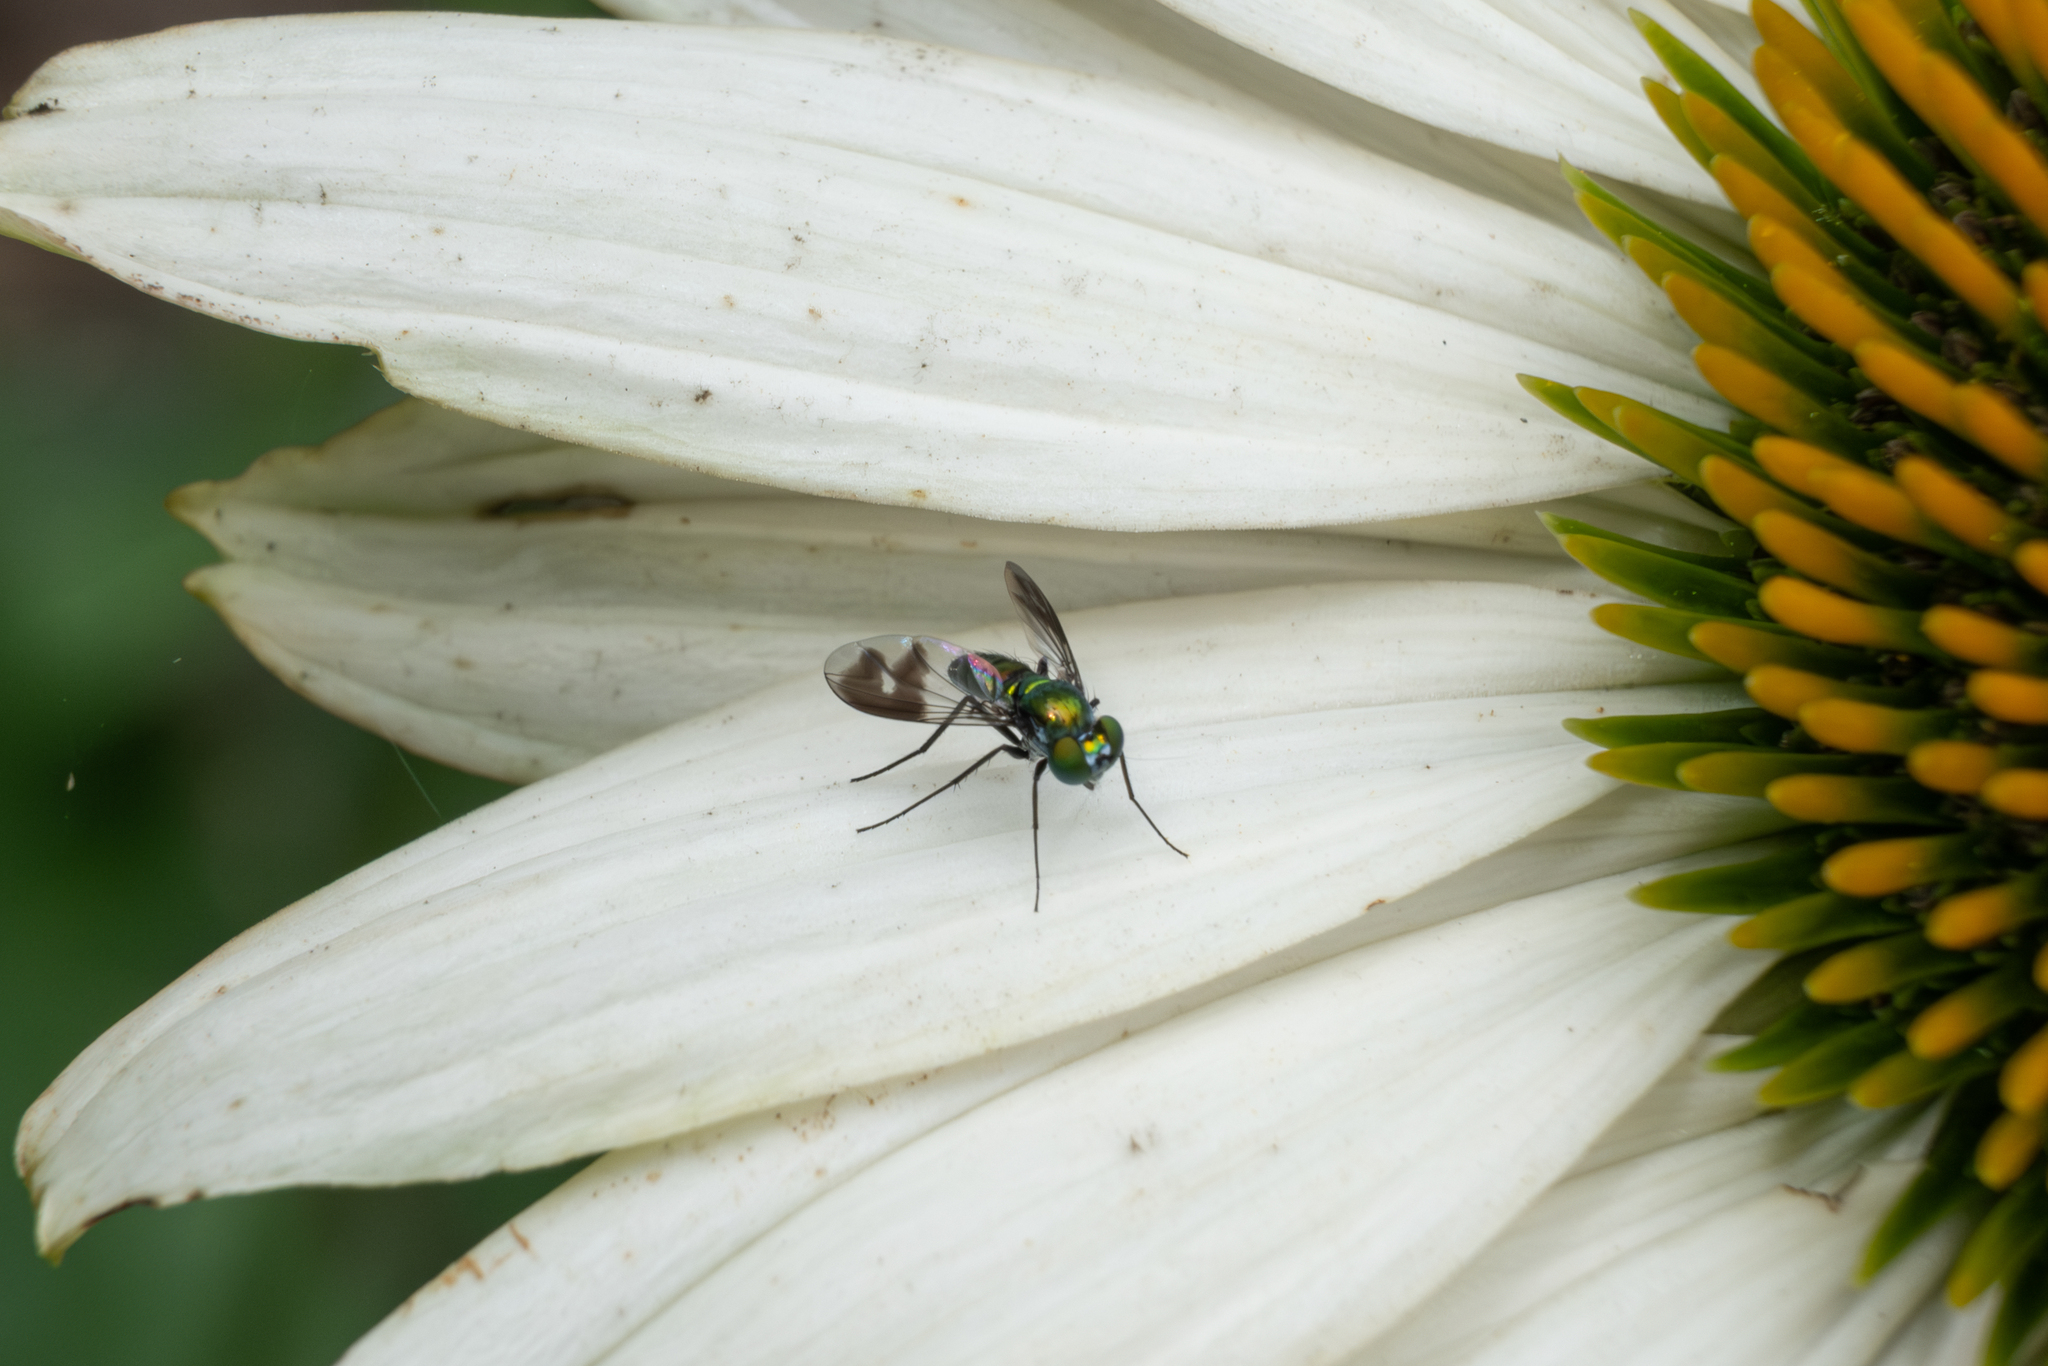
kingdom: Animalia
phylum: Arthropoda
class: Insecta
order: Diptera
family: Dolichopodidae
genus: Condylostylus
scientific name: Condylostylus patibulatus
